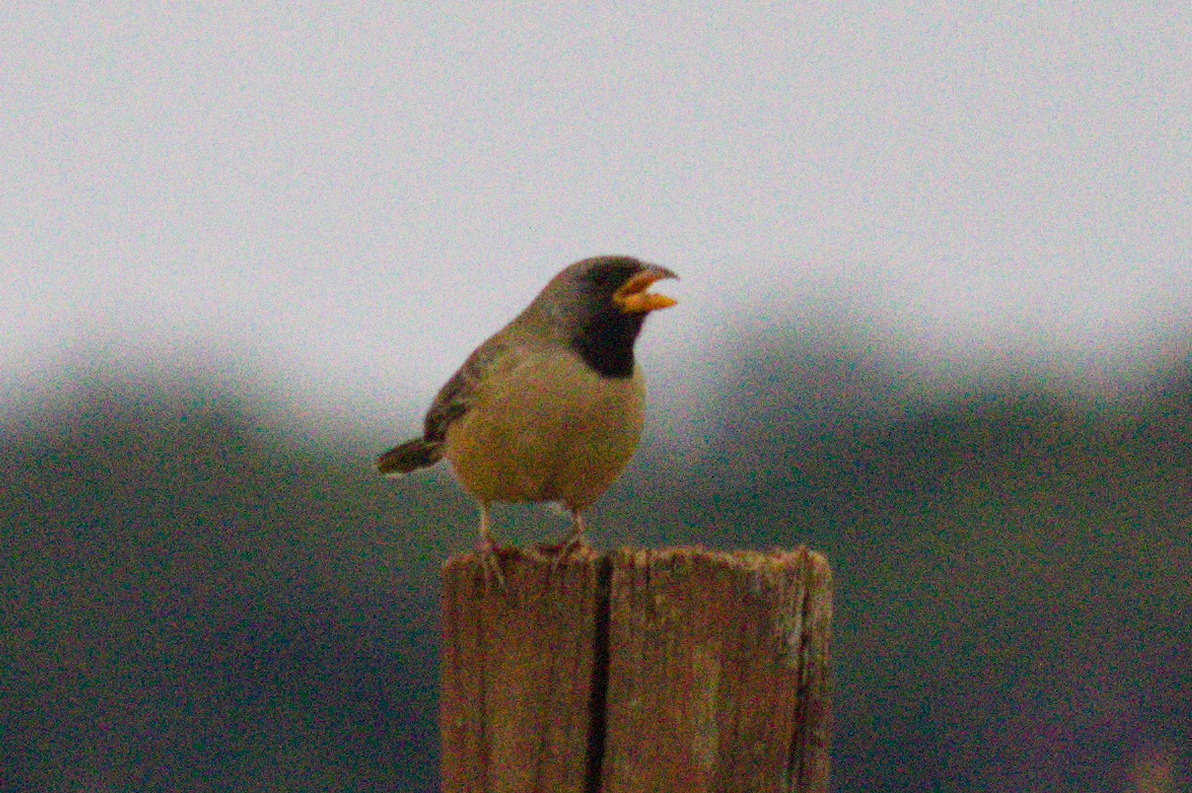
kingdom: Animalia
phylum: Chordata
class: Aves
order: Passeriformes
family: Thraupidae
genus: Saltatricula
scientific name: Saltatricula atricollis
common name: Black-throated saltator
